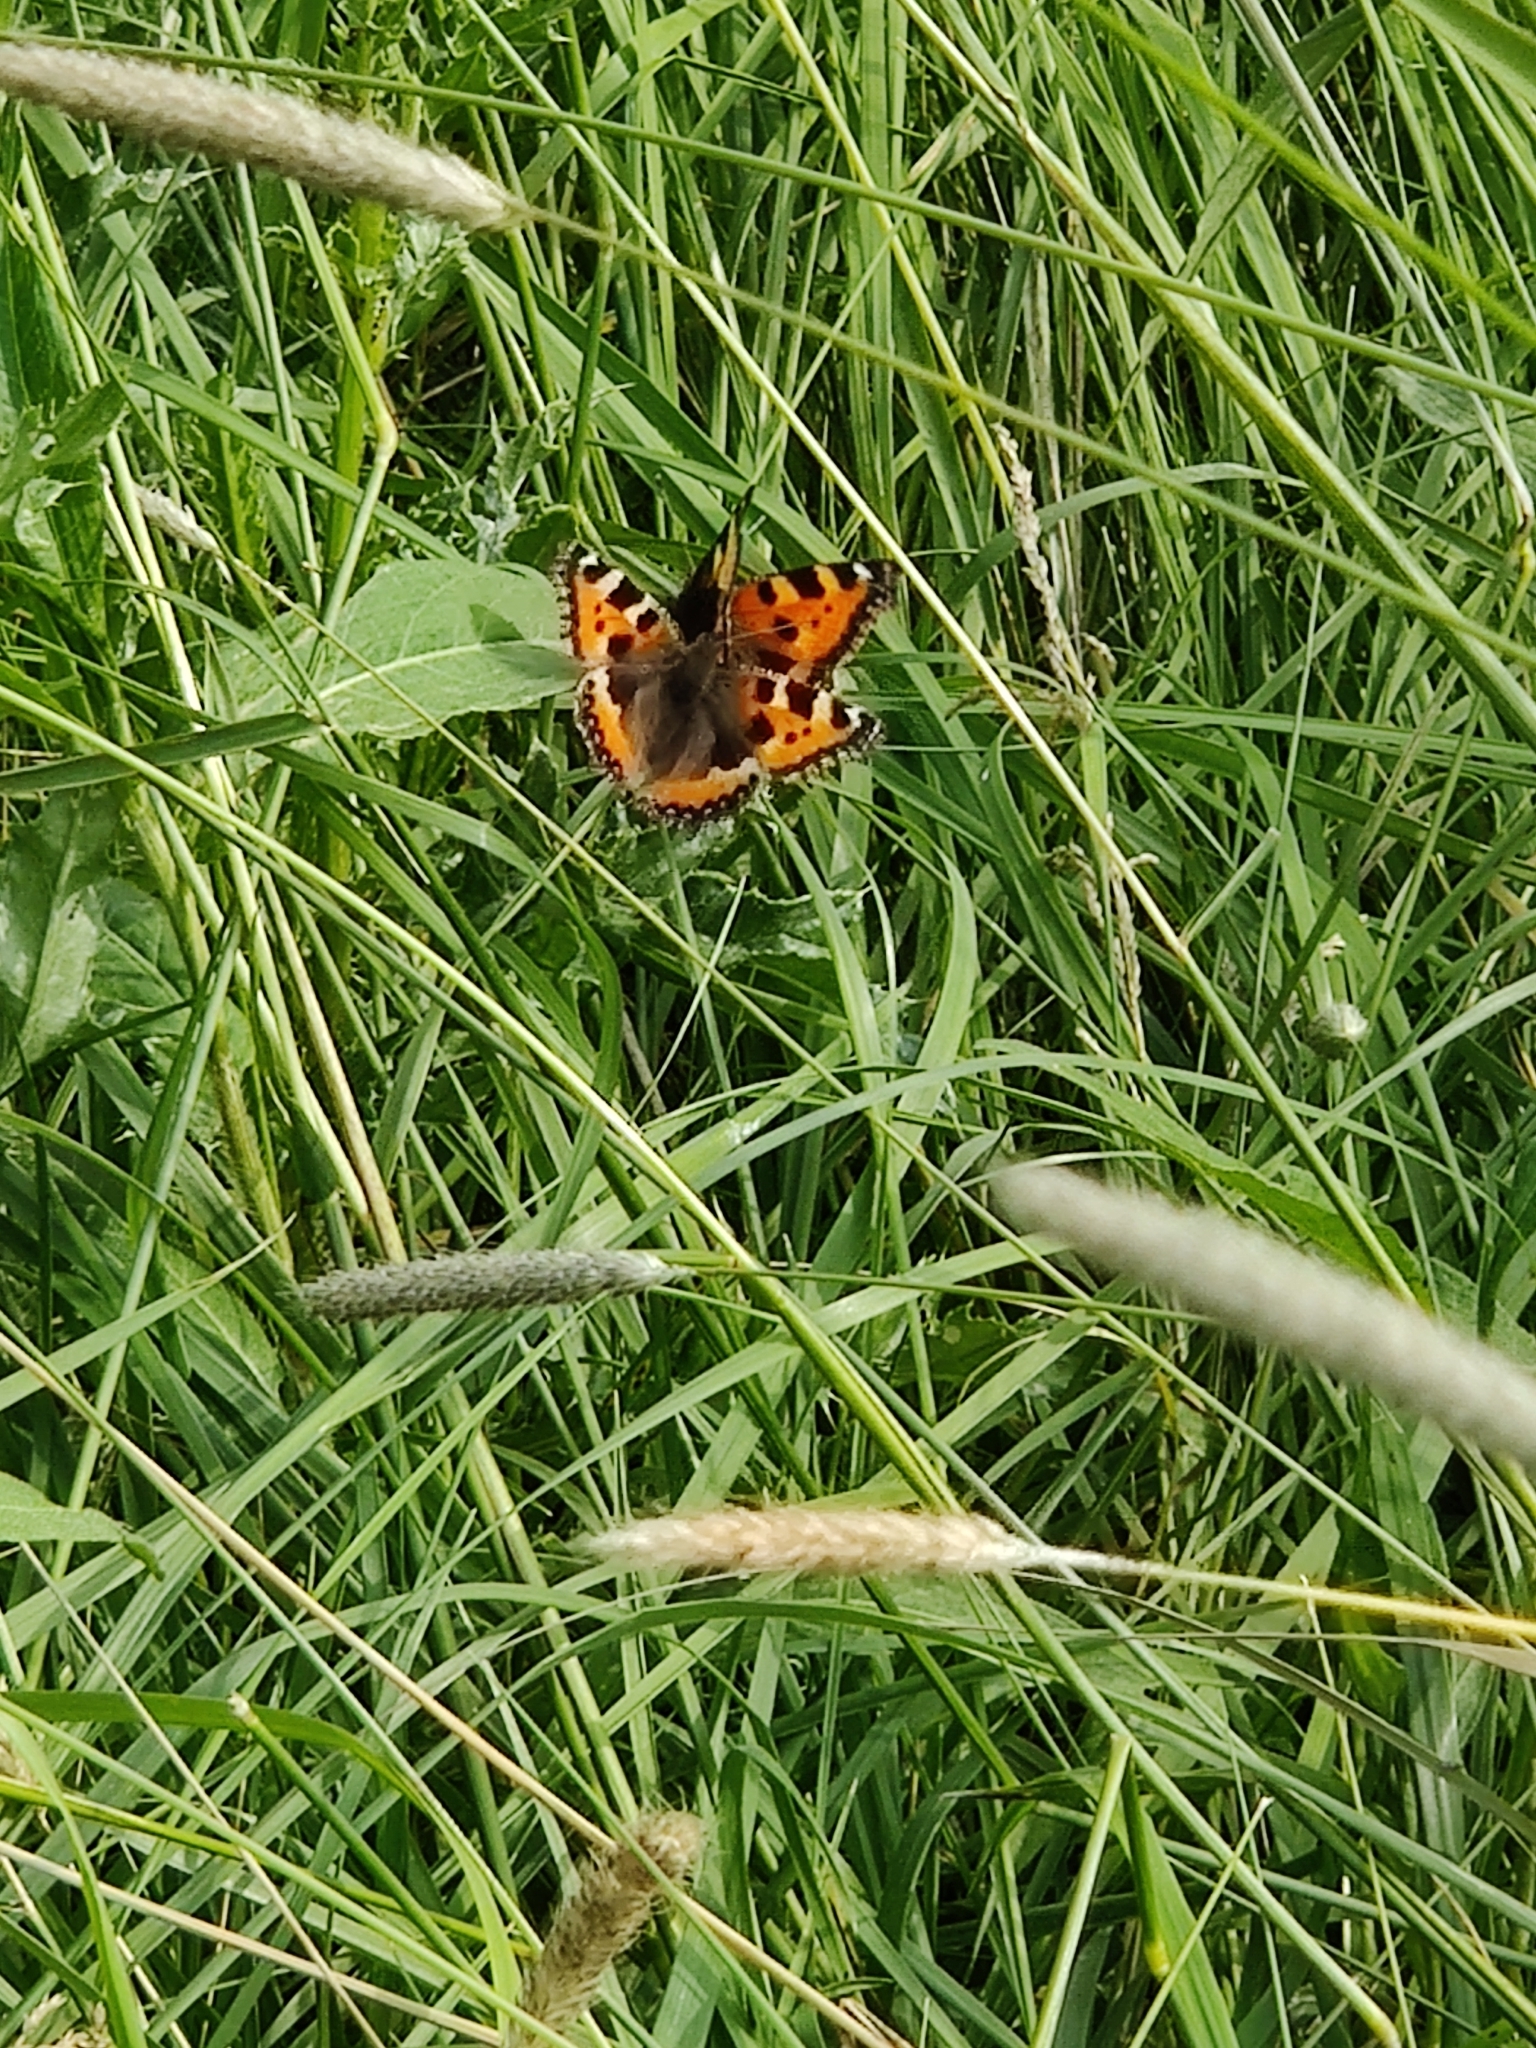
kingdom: Animalia
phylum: Arthropoda
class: Insecta
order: Lepidoptera
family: Nymphalidae
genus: Aglais
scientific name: Aglais urticae
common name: Small tortoiseshell
